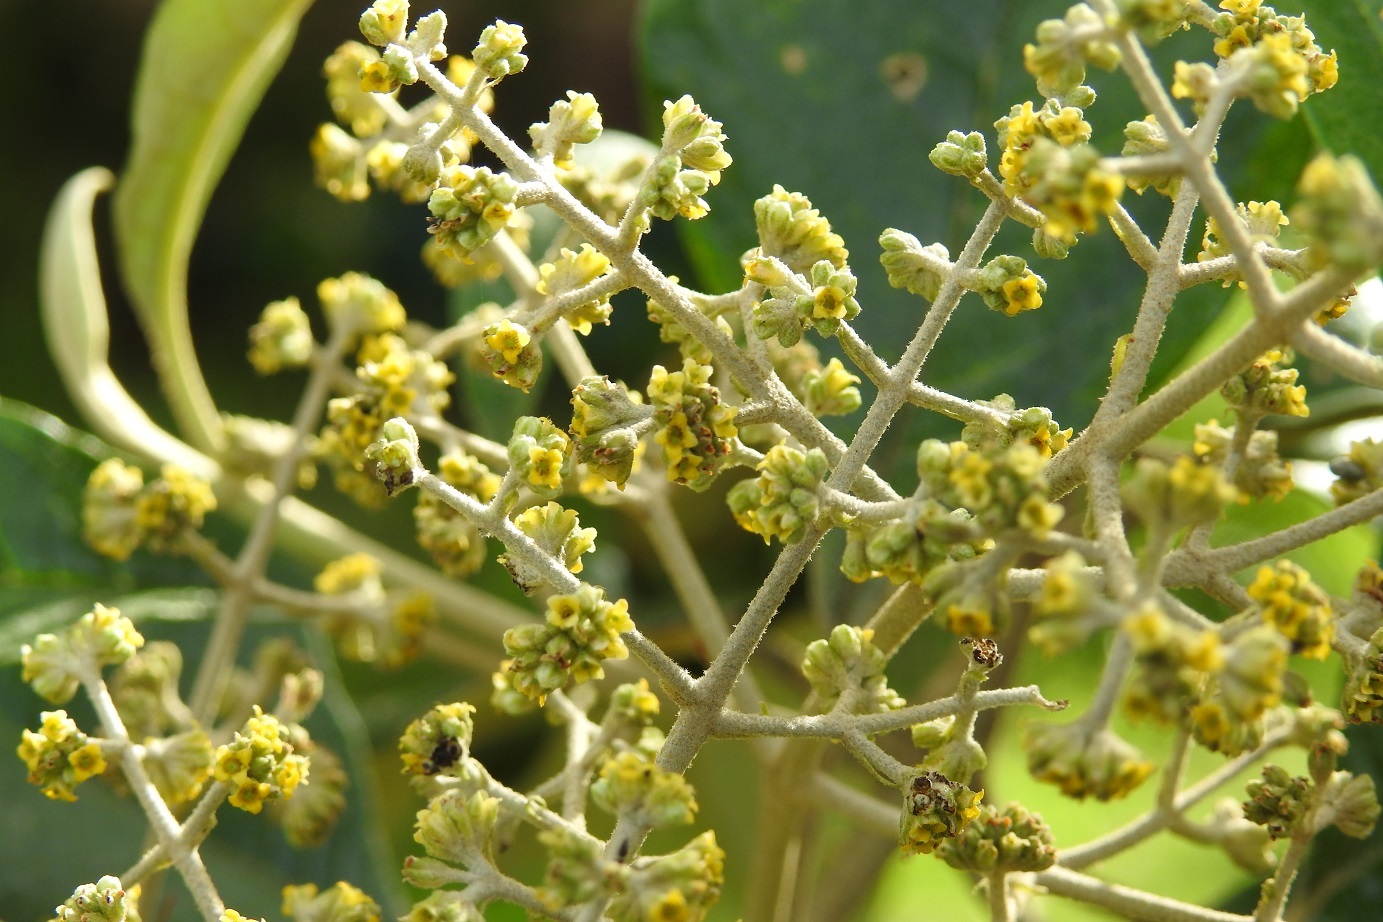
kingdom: Plantae
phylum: Tracheophyta
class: Magnoliopsida
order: Lamiales
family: Scrophulariaceae
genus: Buddleja
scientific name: Buddleja cordata
